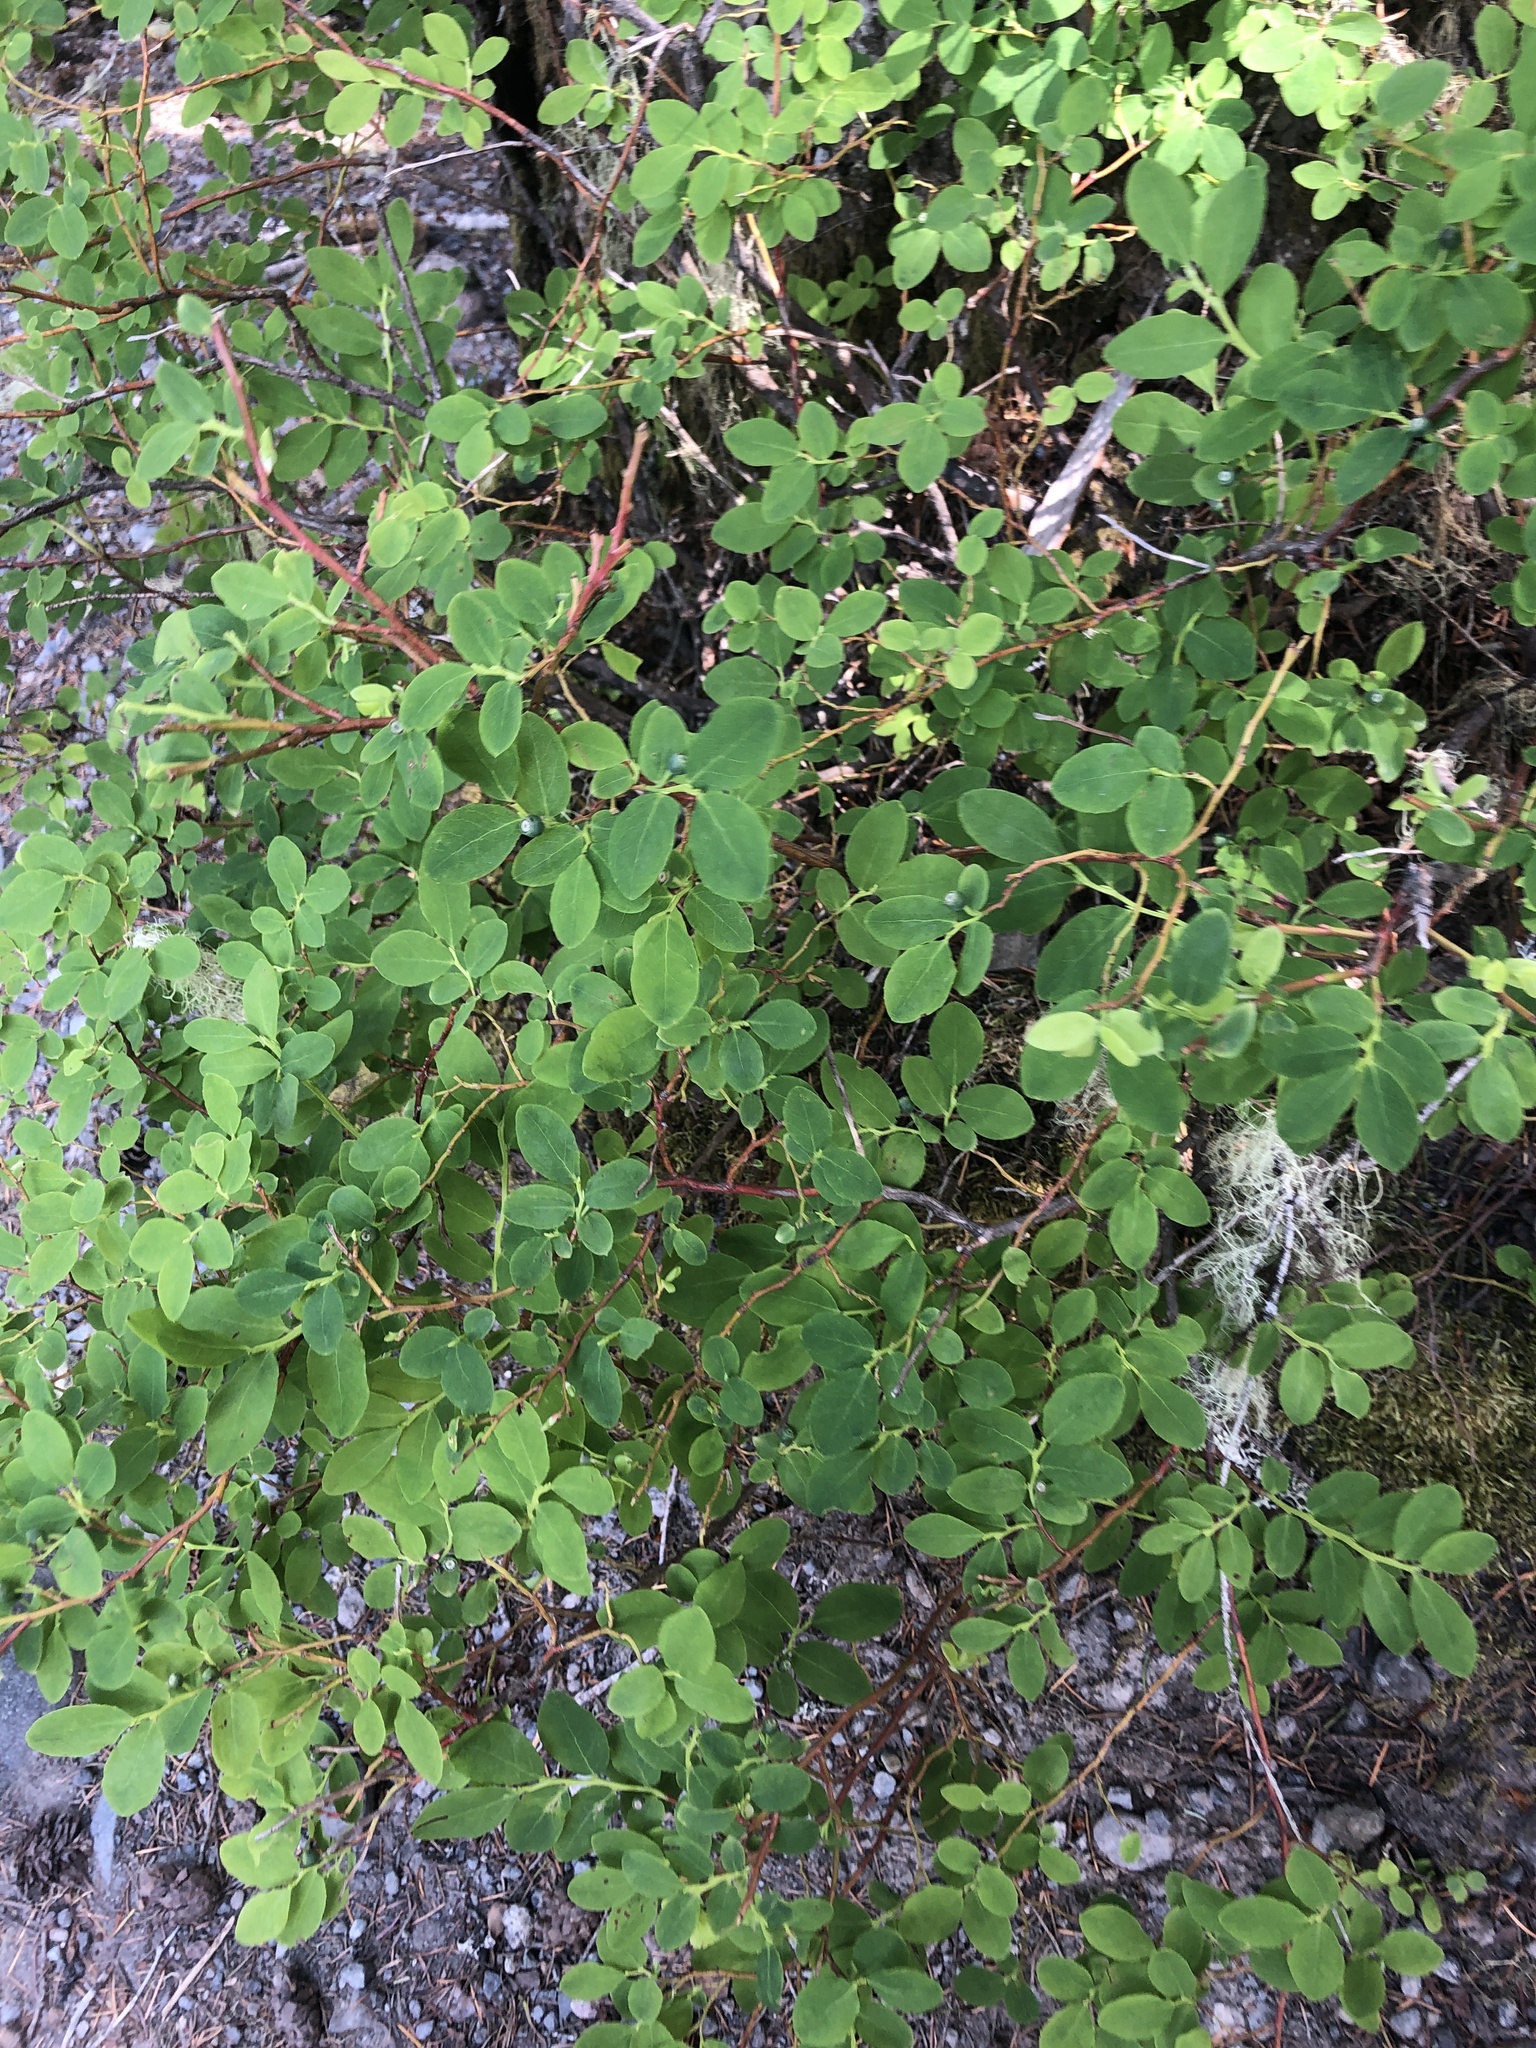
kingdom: Animalia
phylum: Chordata
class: Aves
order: Passeriformes
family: Corvidae
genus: Cyanocitta
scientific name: Cyanocitta stelleri
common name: Steller's jay
